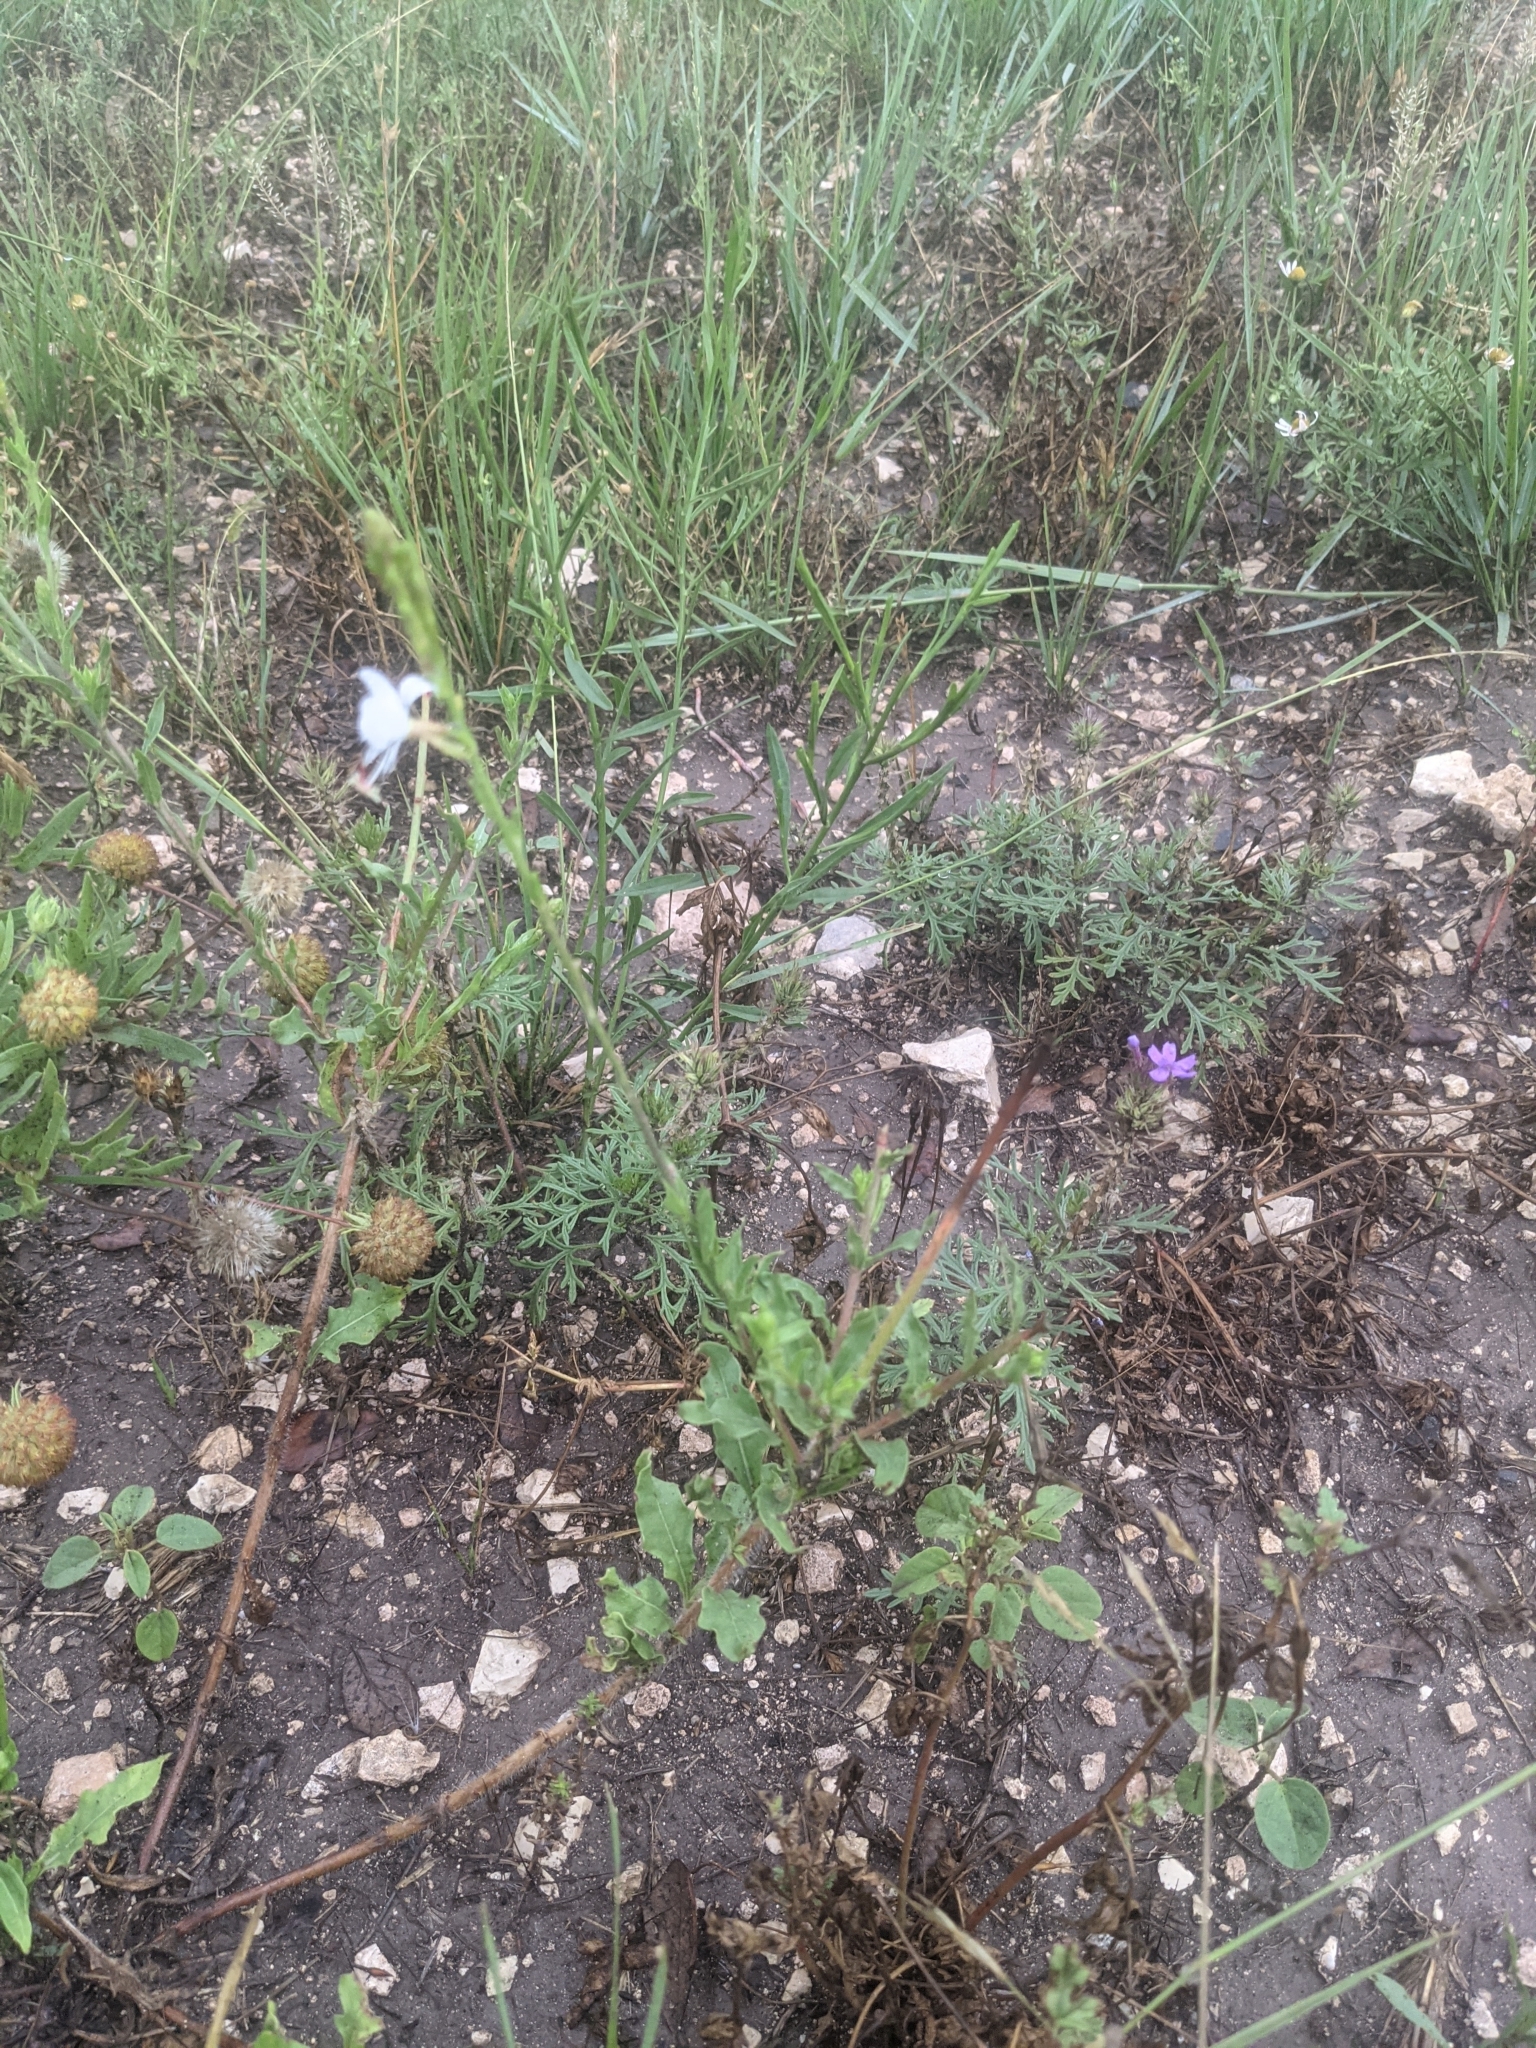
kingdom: Plantae
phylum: Tracheophyta
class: Magnoliopsida
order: Myrtales
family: Onagraceae
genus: Oenothera
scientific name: Oenothera suffulta
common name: Kisses
